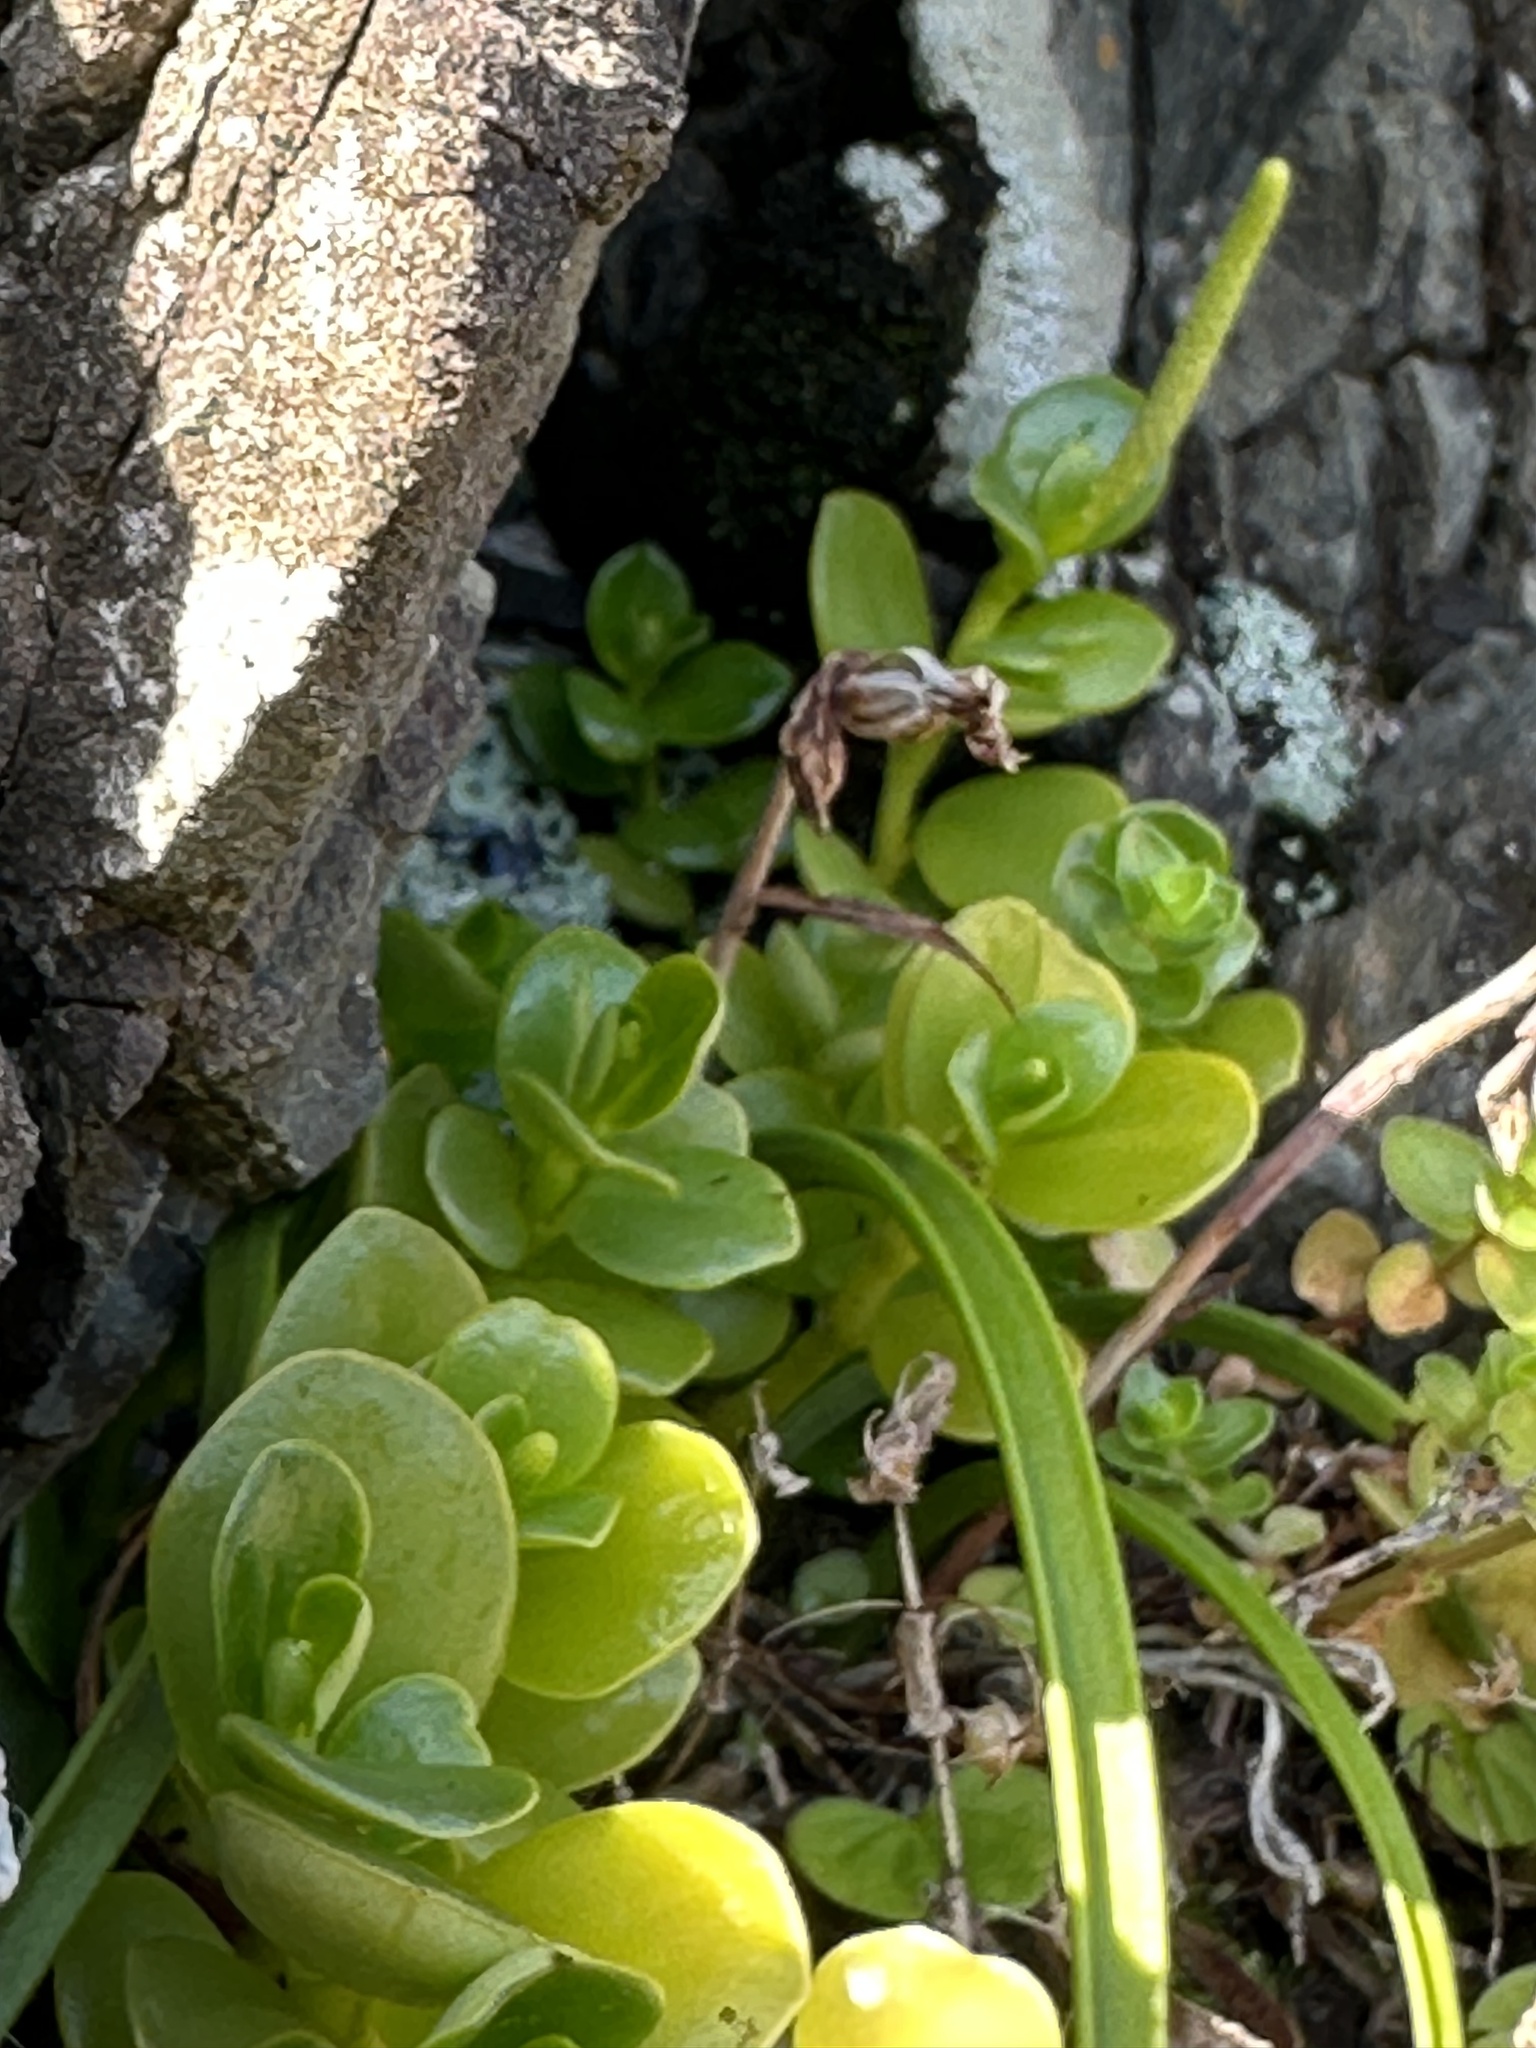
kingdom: Plantae
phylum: Tracheophyta
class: Magnoliopsida
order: Piperales
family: Piperaceae
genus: Peperomia
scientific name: Peperomia urvilleana
